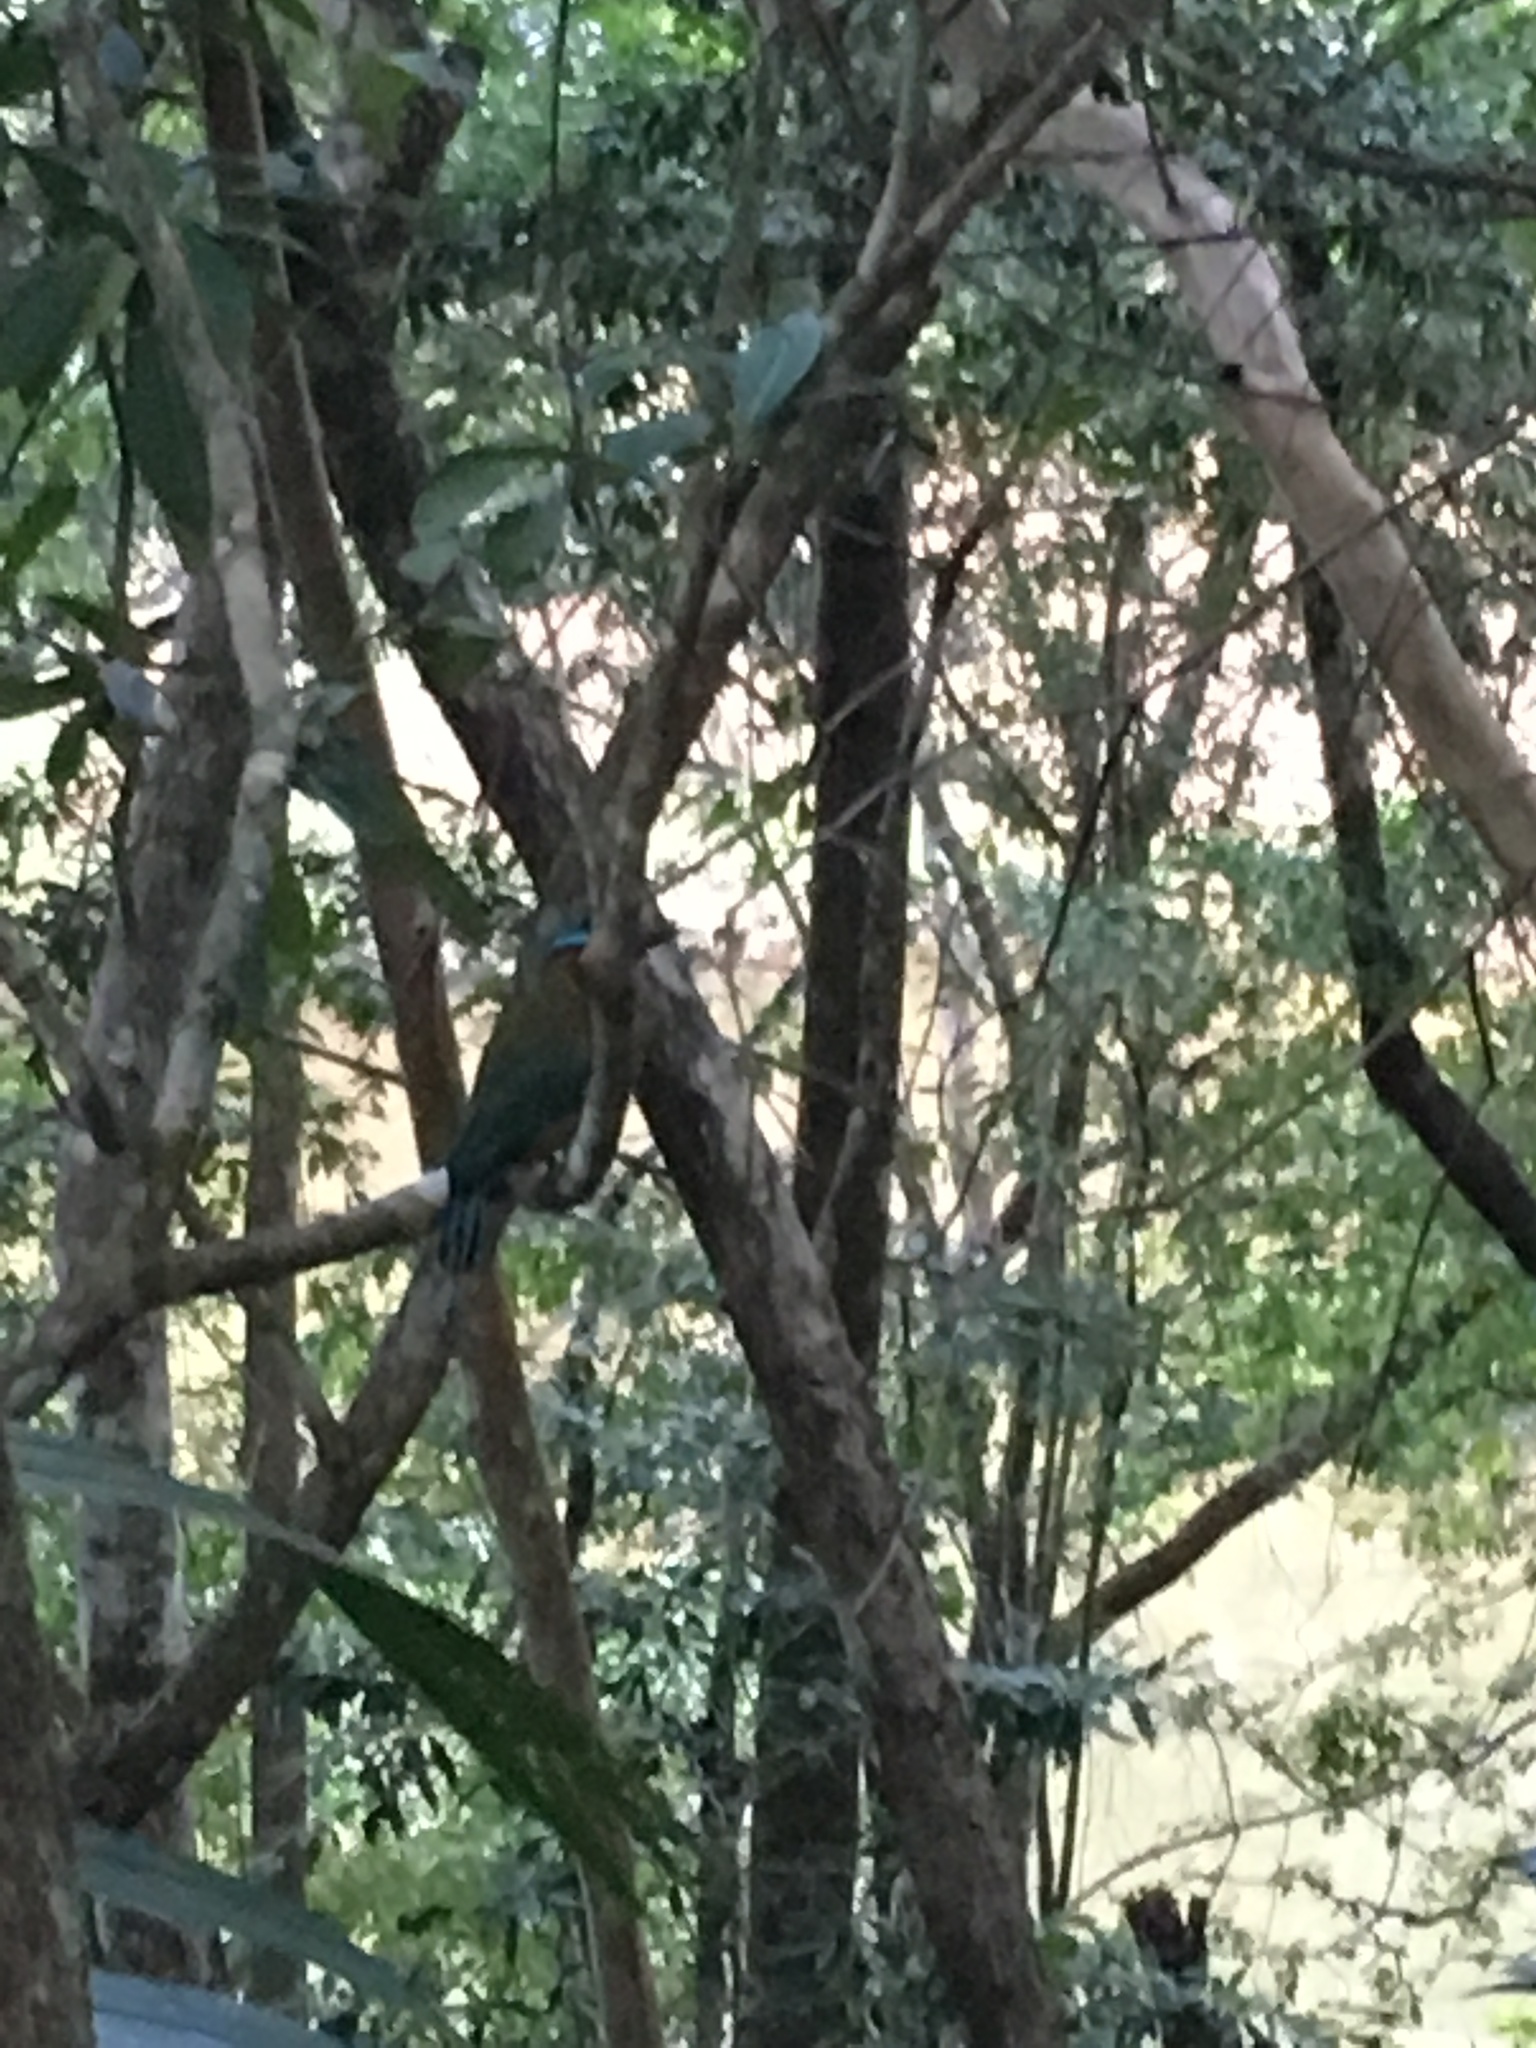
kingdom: Animalia
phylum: Chordata
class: Aves
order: Coraciiformes
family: Momotidae
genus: Momotus
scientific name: Momotus lessonii
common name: Lesson's motmot
